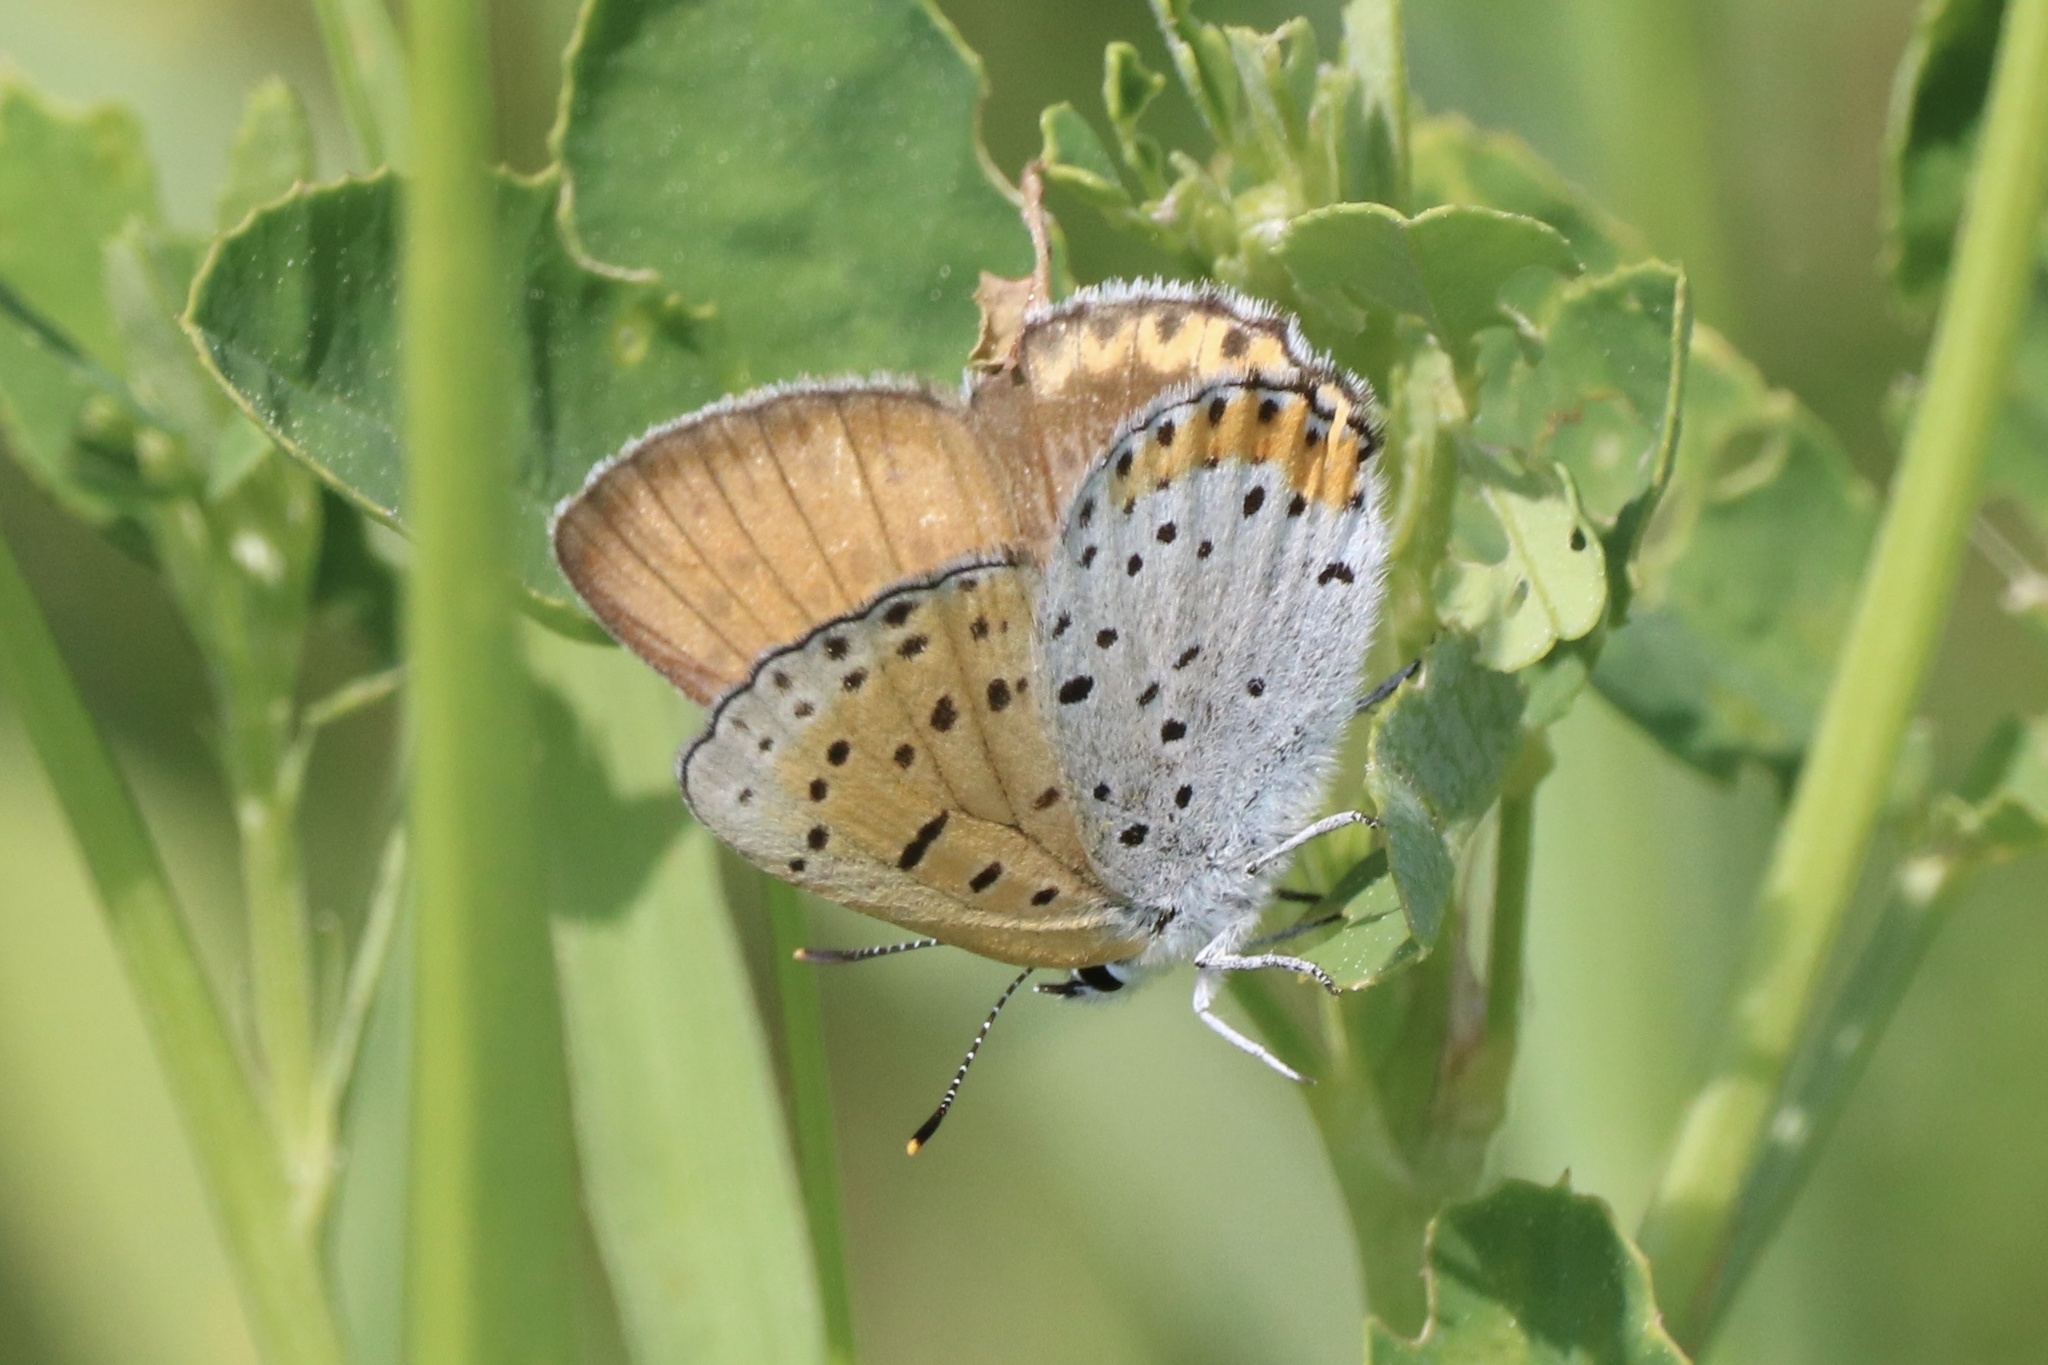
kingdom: Animalia
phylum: Arthropoda
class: Insecta
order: Lepidoptera
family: Lycaenidae
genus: Tharsalea
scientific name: Tharsalea hyllus
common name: Bronze copper
